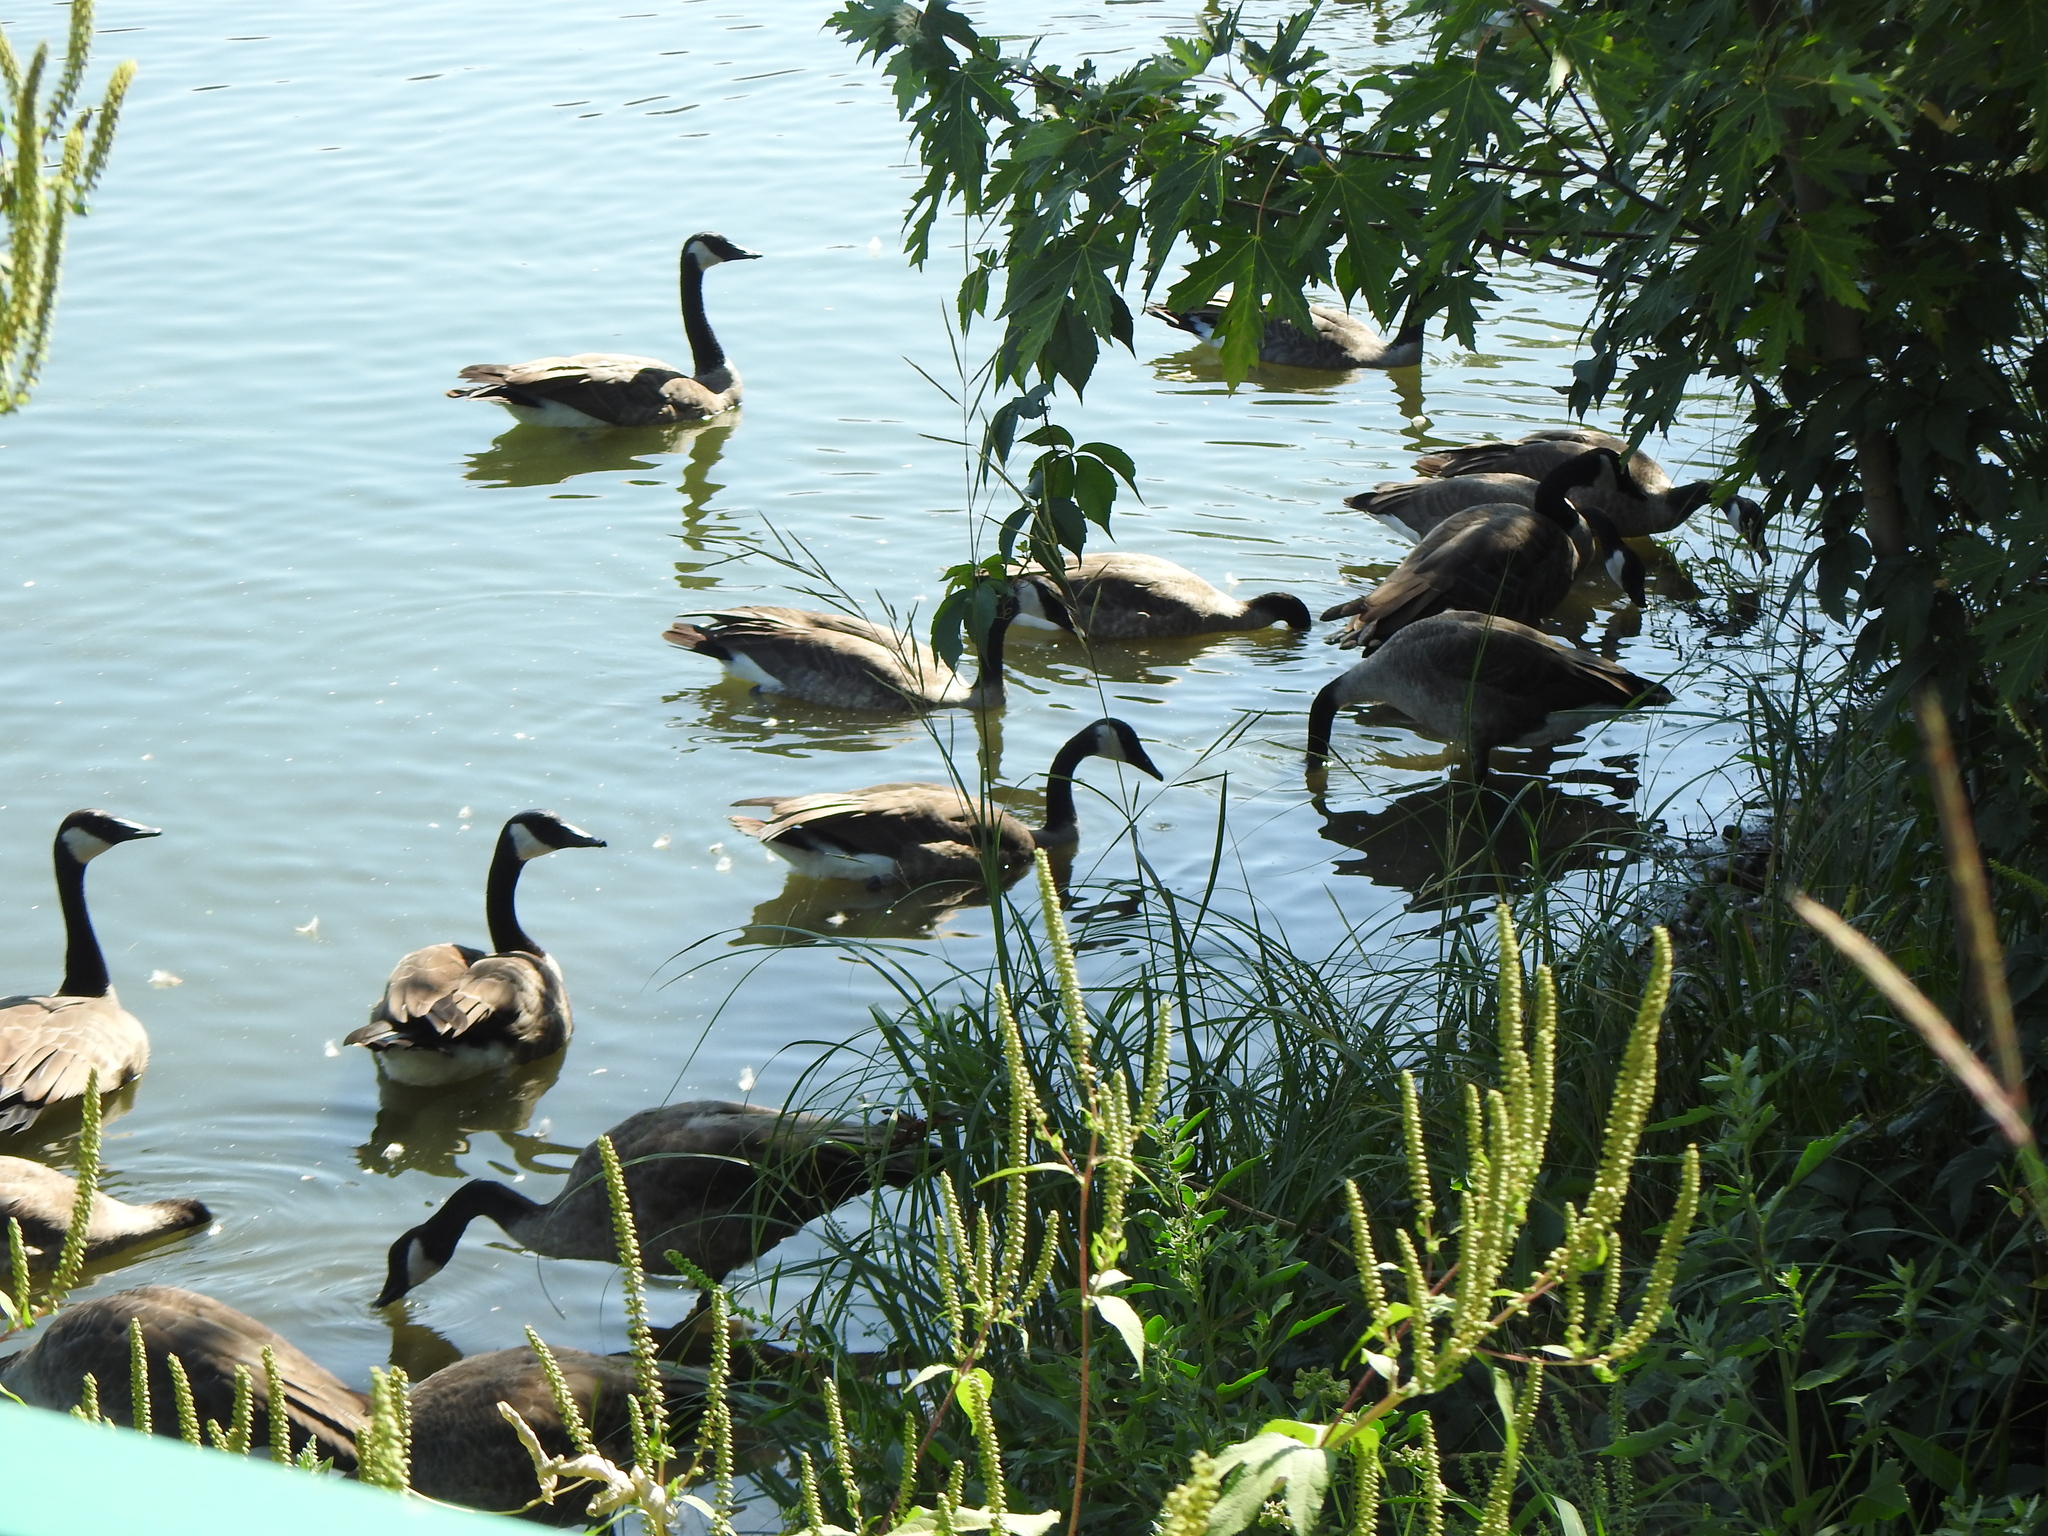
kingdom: Animalia
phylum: Chordata
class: Aves
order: Anseriformes
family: Anatidae
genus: Branta
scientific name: Branta canadensis
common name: Canada goose
